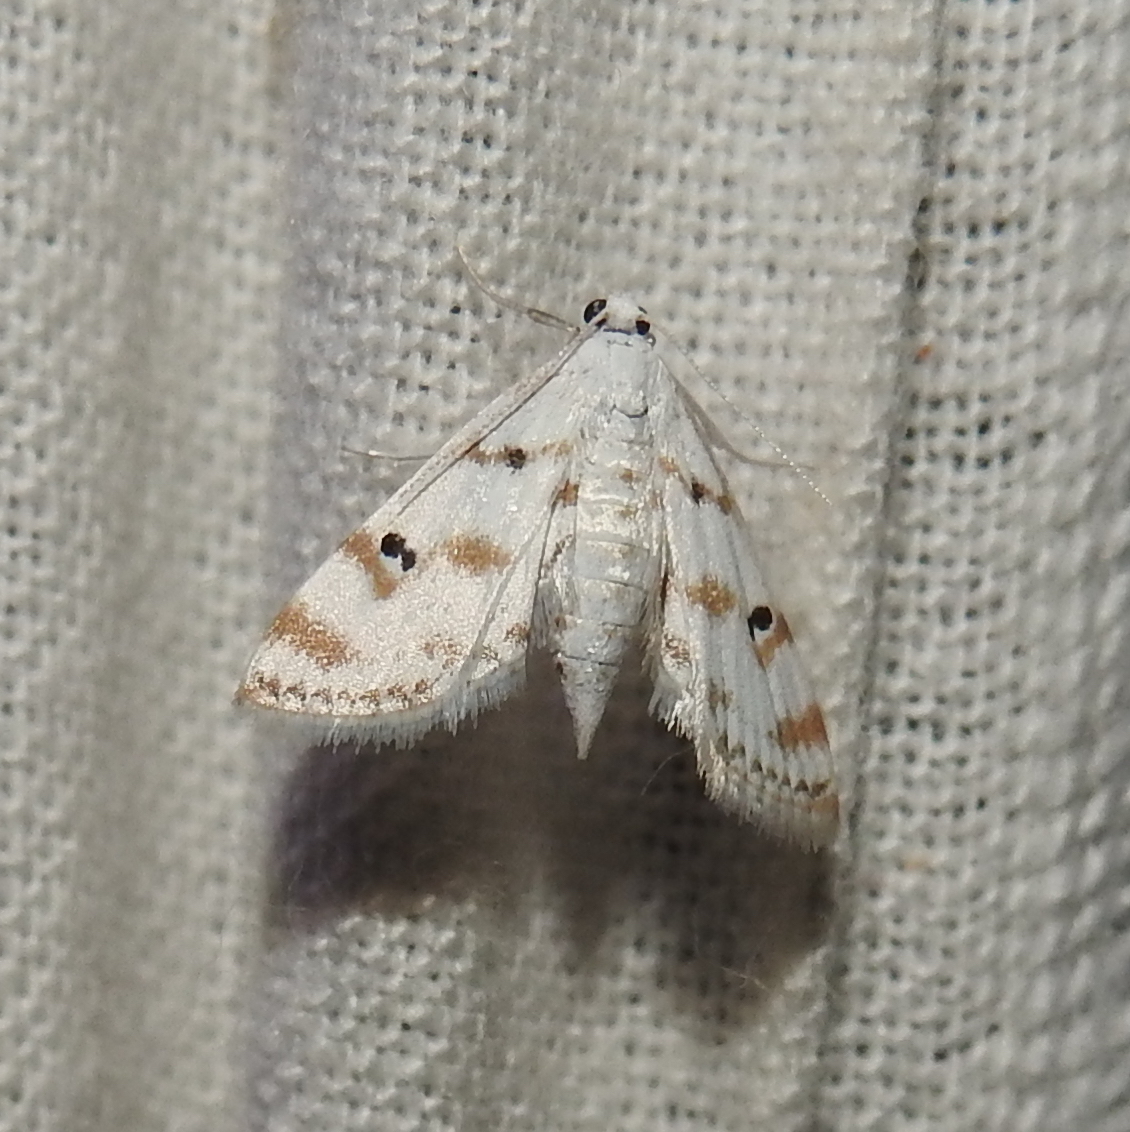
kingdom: Animalia
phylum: Arthropoda
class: Insecta
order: Lepidoptera
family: Crambidae
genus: Parapoynx
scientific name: Parapoynx stagnalis
